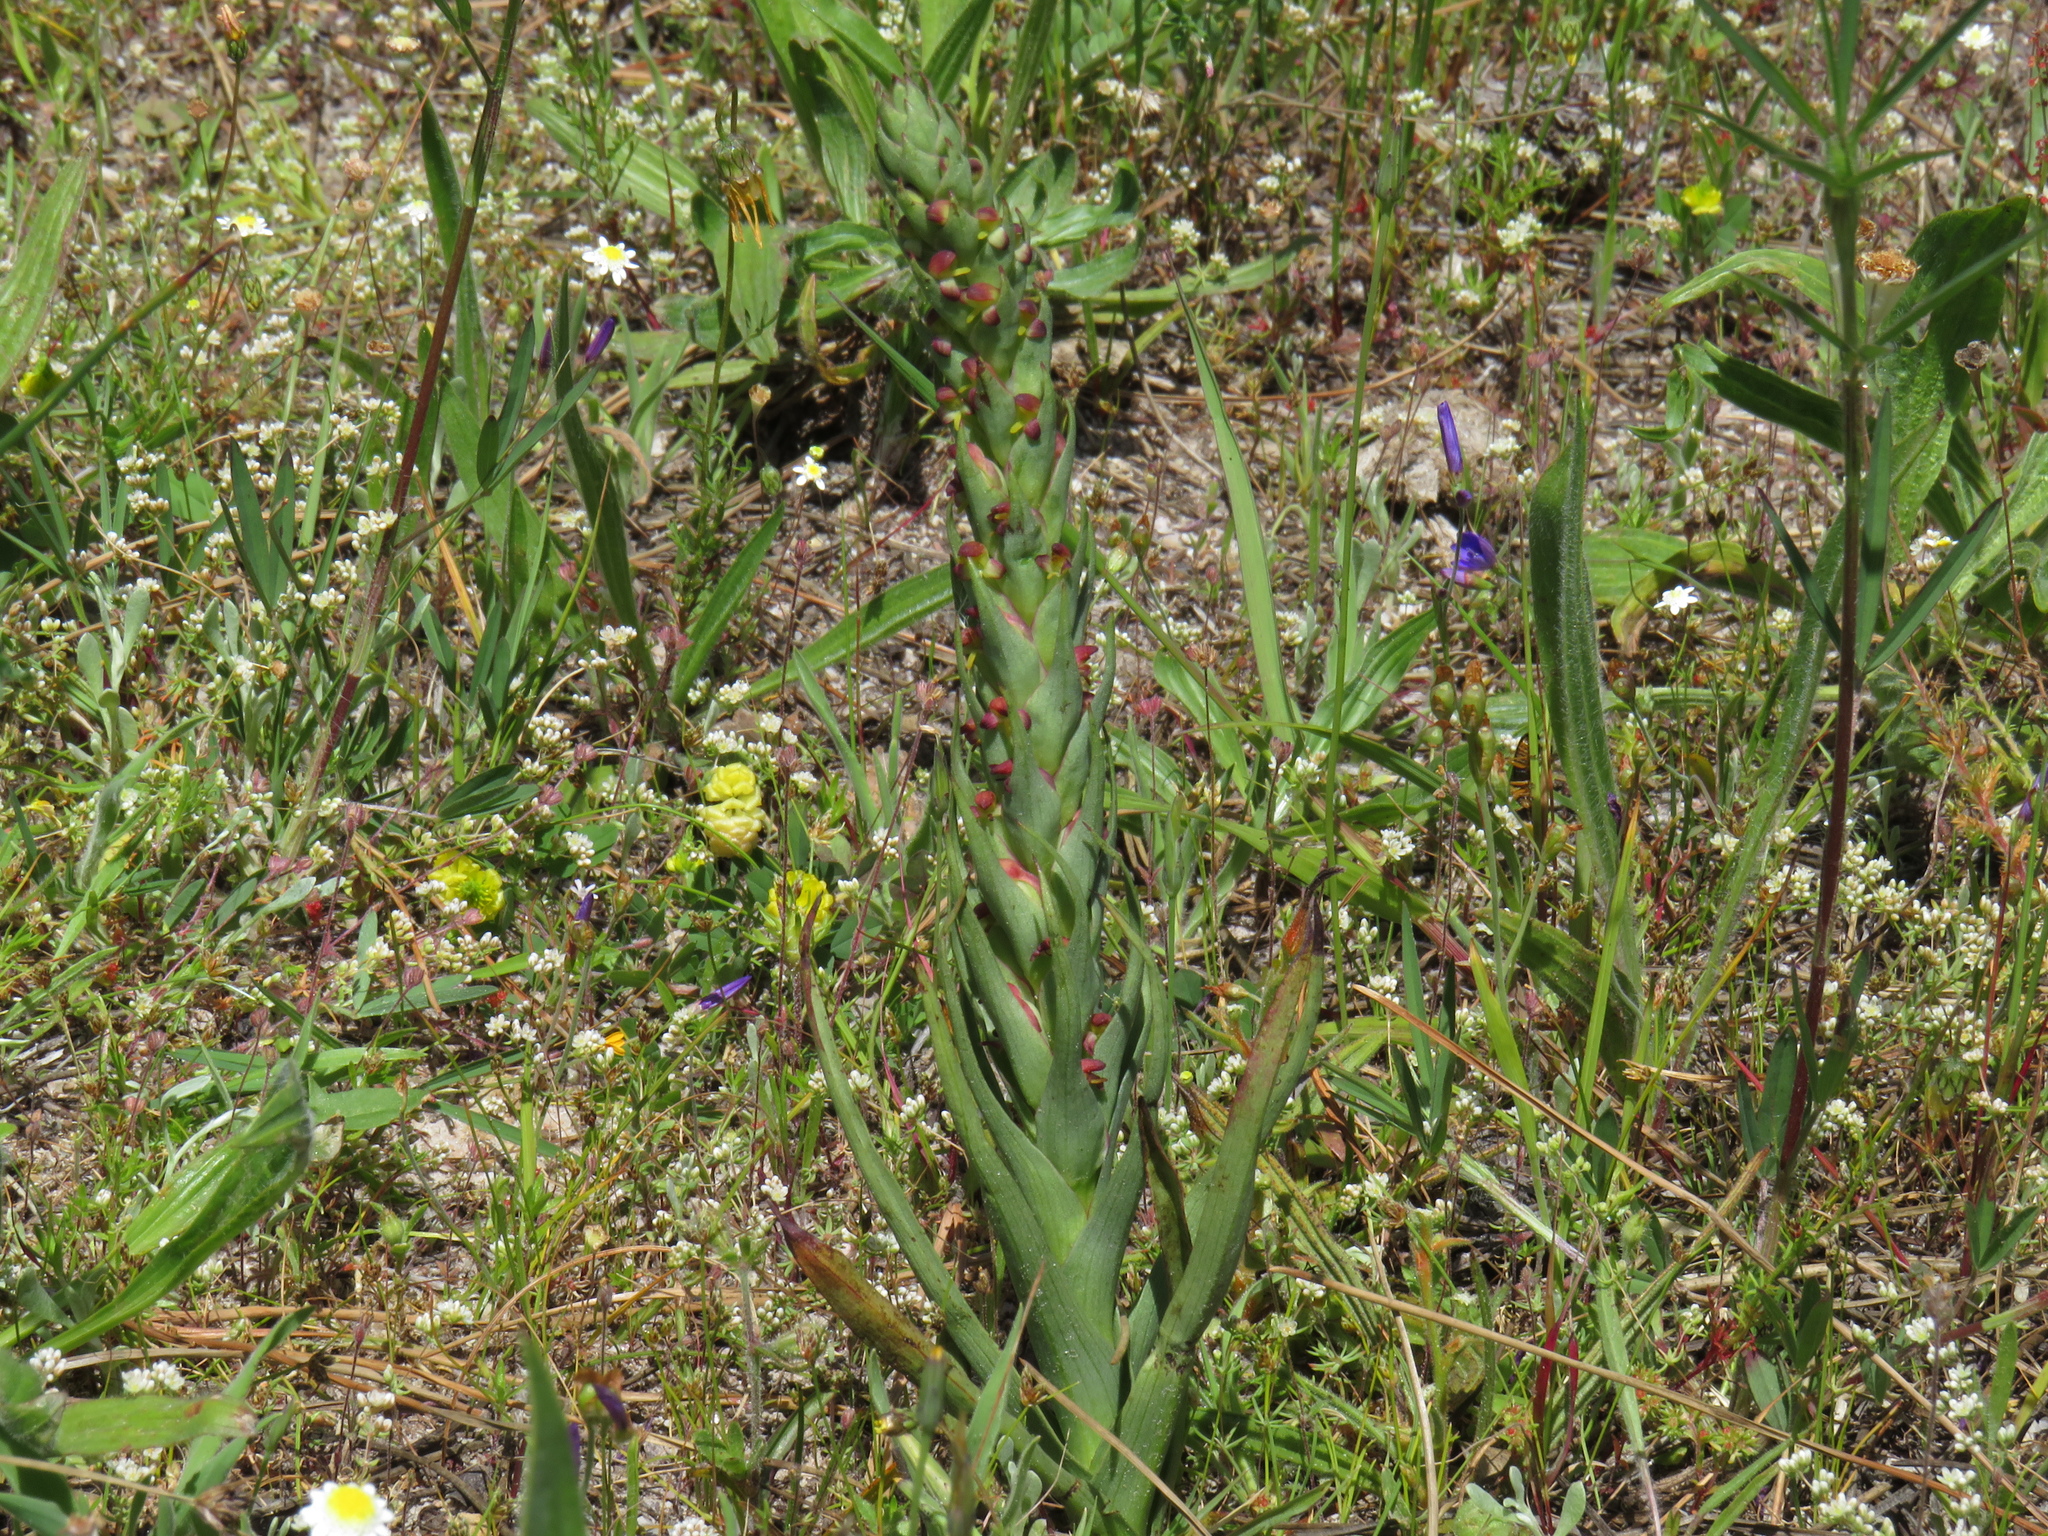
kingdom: Plantae
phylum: Tracheophyta
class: Liliopsida
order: Asparagales
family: Orchidaceae
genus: Disa
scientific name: Disa bracteata
